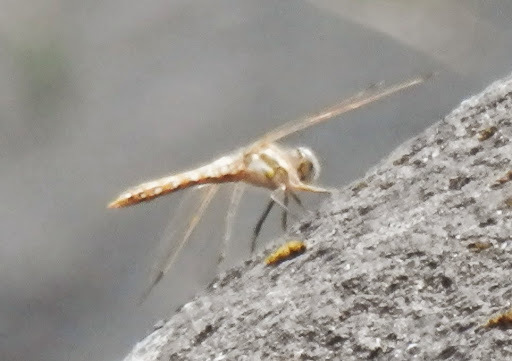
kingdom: Animalia
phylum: Arthropoda
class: Insecta
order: Odonata
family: Libellulidae
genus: Sympetrum
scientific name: Sympetrum corruptum
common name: Variegated meadowhawk
